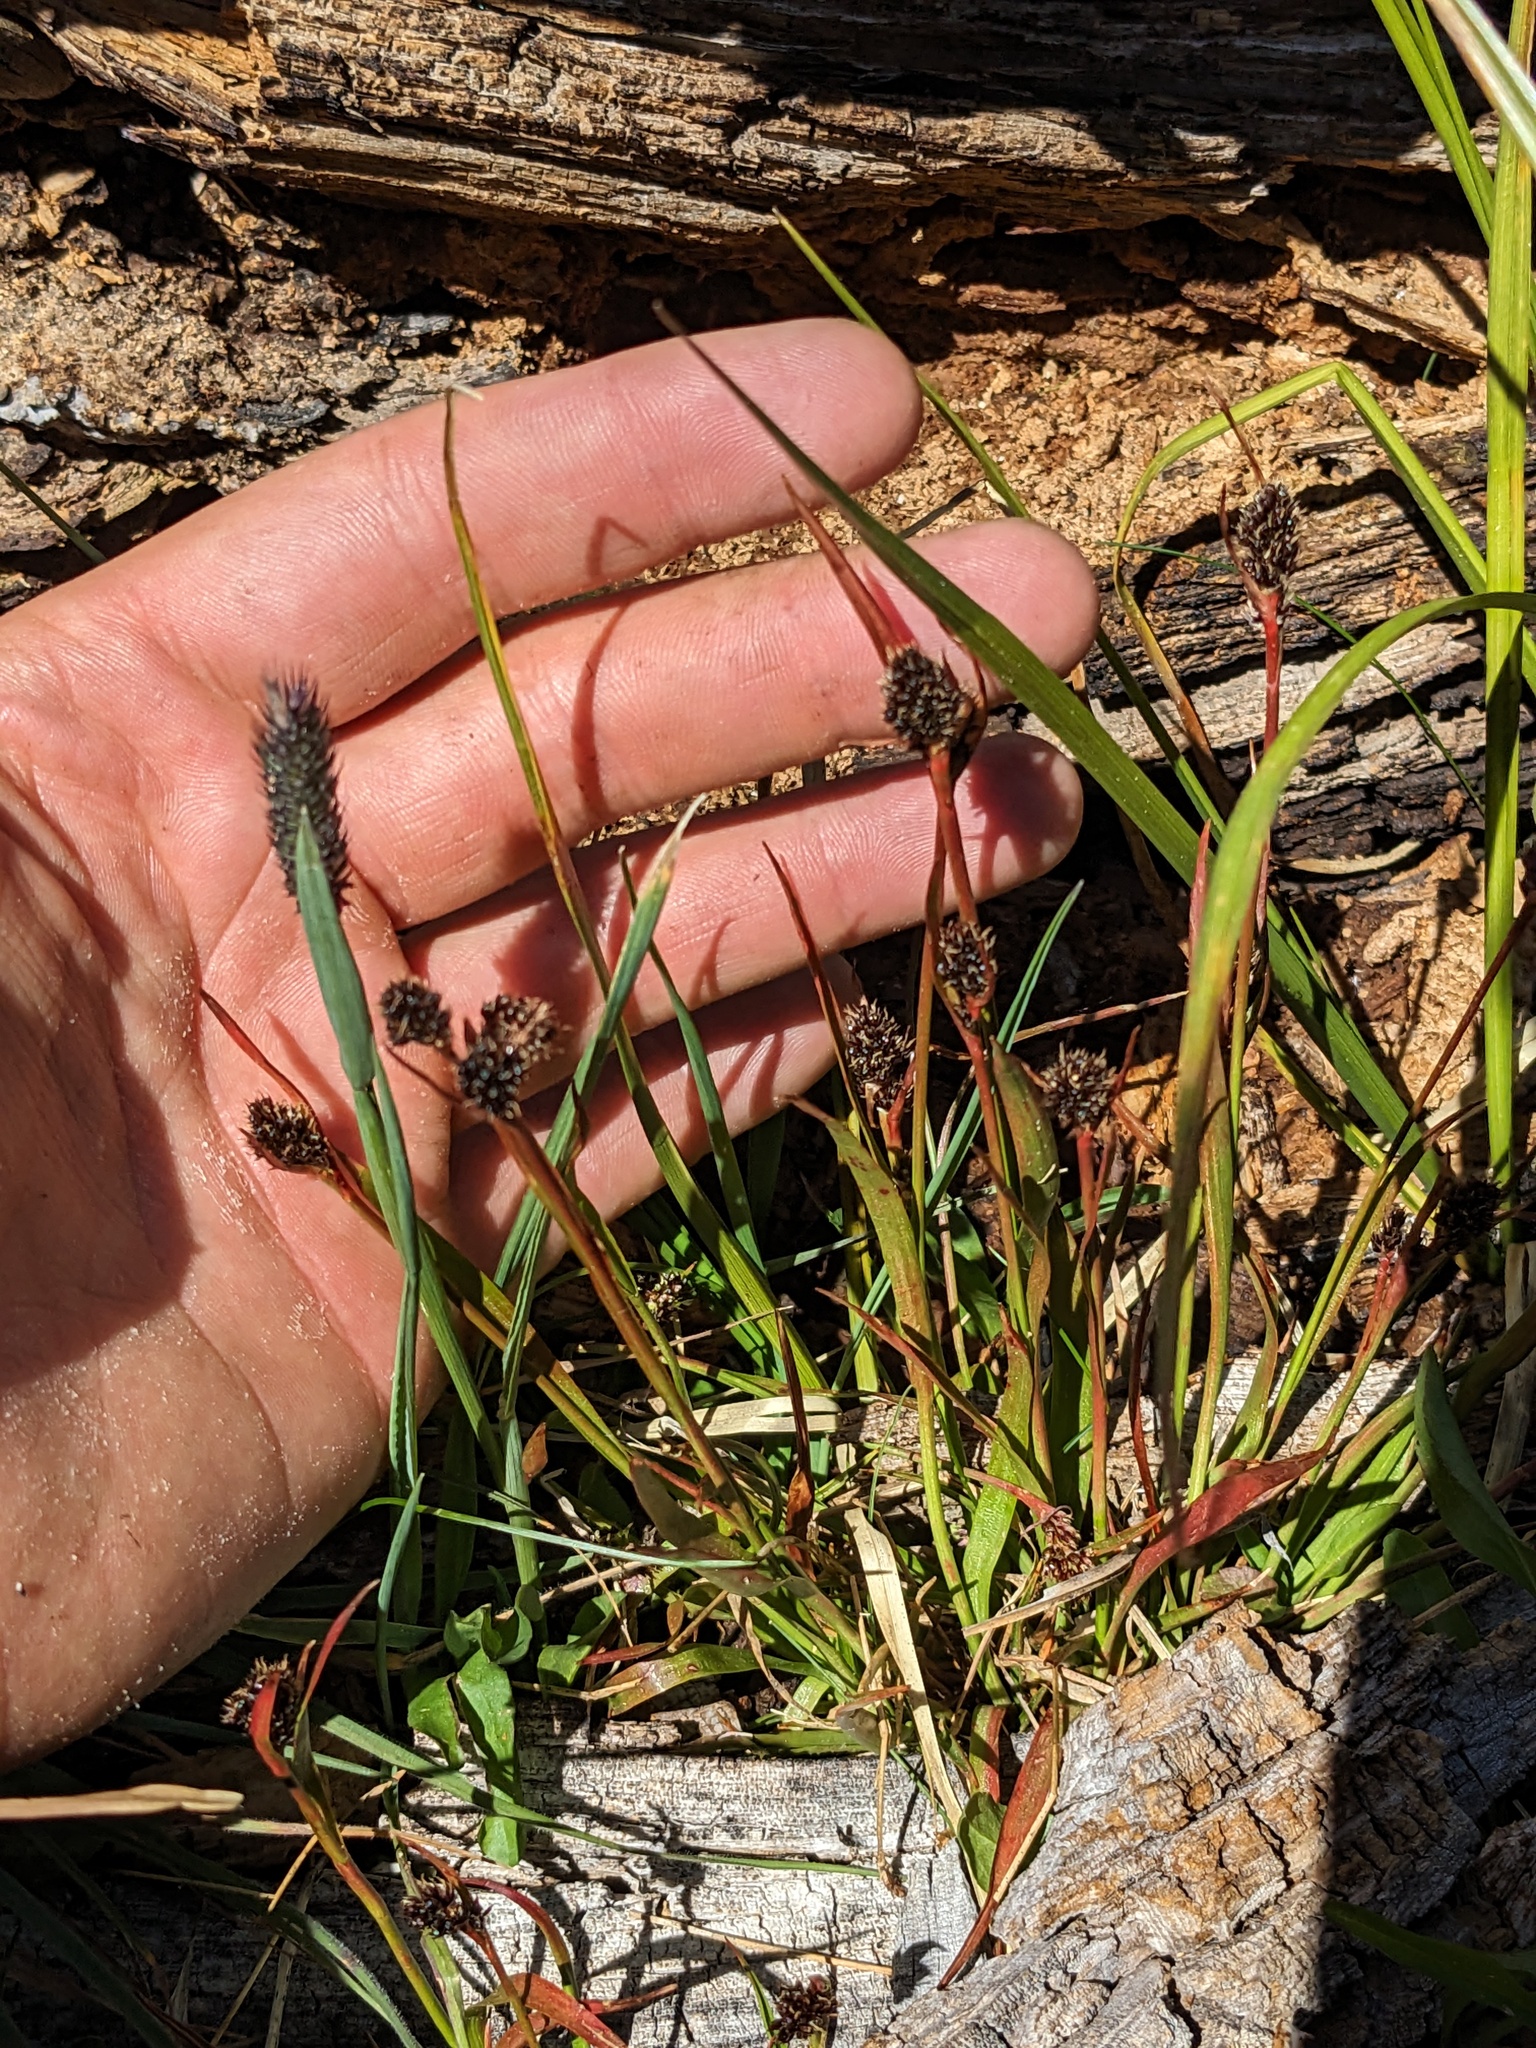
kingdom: Plantae
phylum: Tracheophyta
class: Liliopsida
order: Poales
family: Juncaceae
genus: Luzula
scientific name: Luzula orestera
